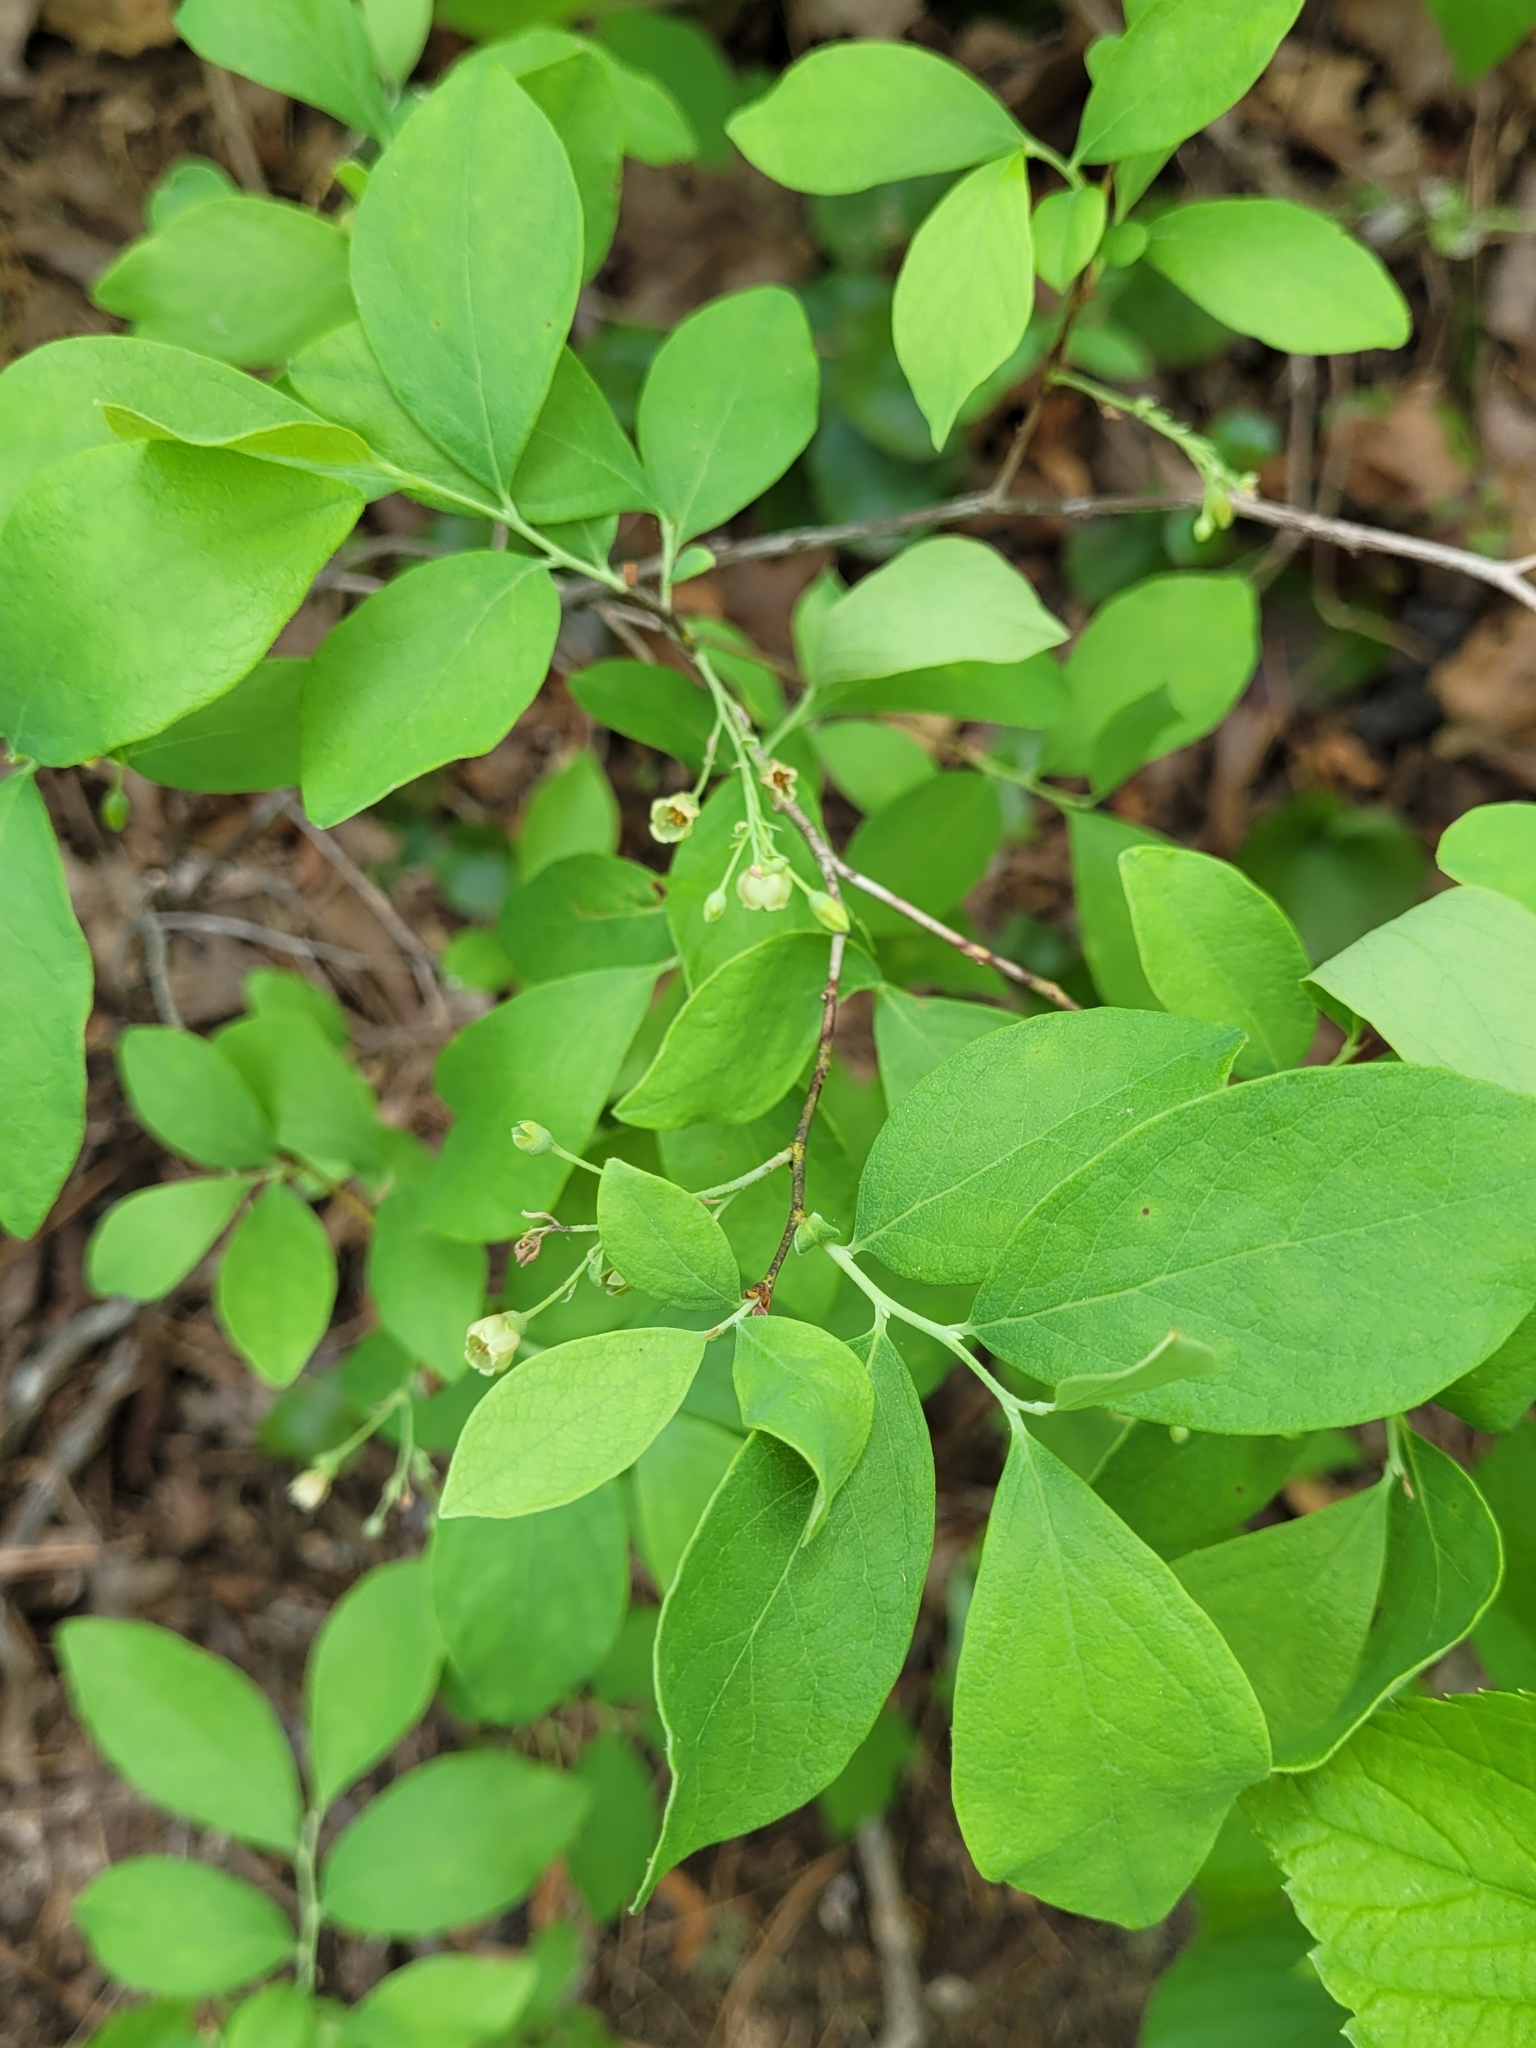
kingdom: Plantae
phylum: Tracheophyta
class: Magnoliopsida
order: Ericales
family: Ericaceae
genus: Gaylussacia
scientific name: Gaylussacia frondosa
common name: Dangleberry
